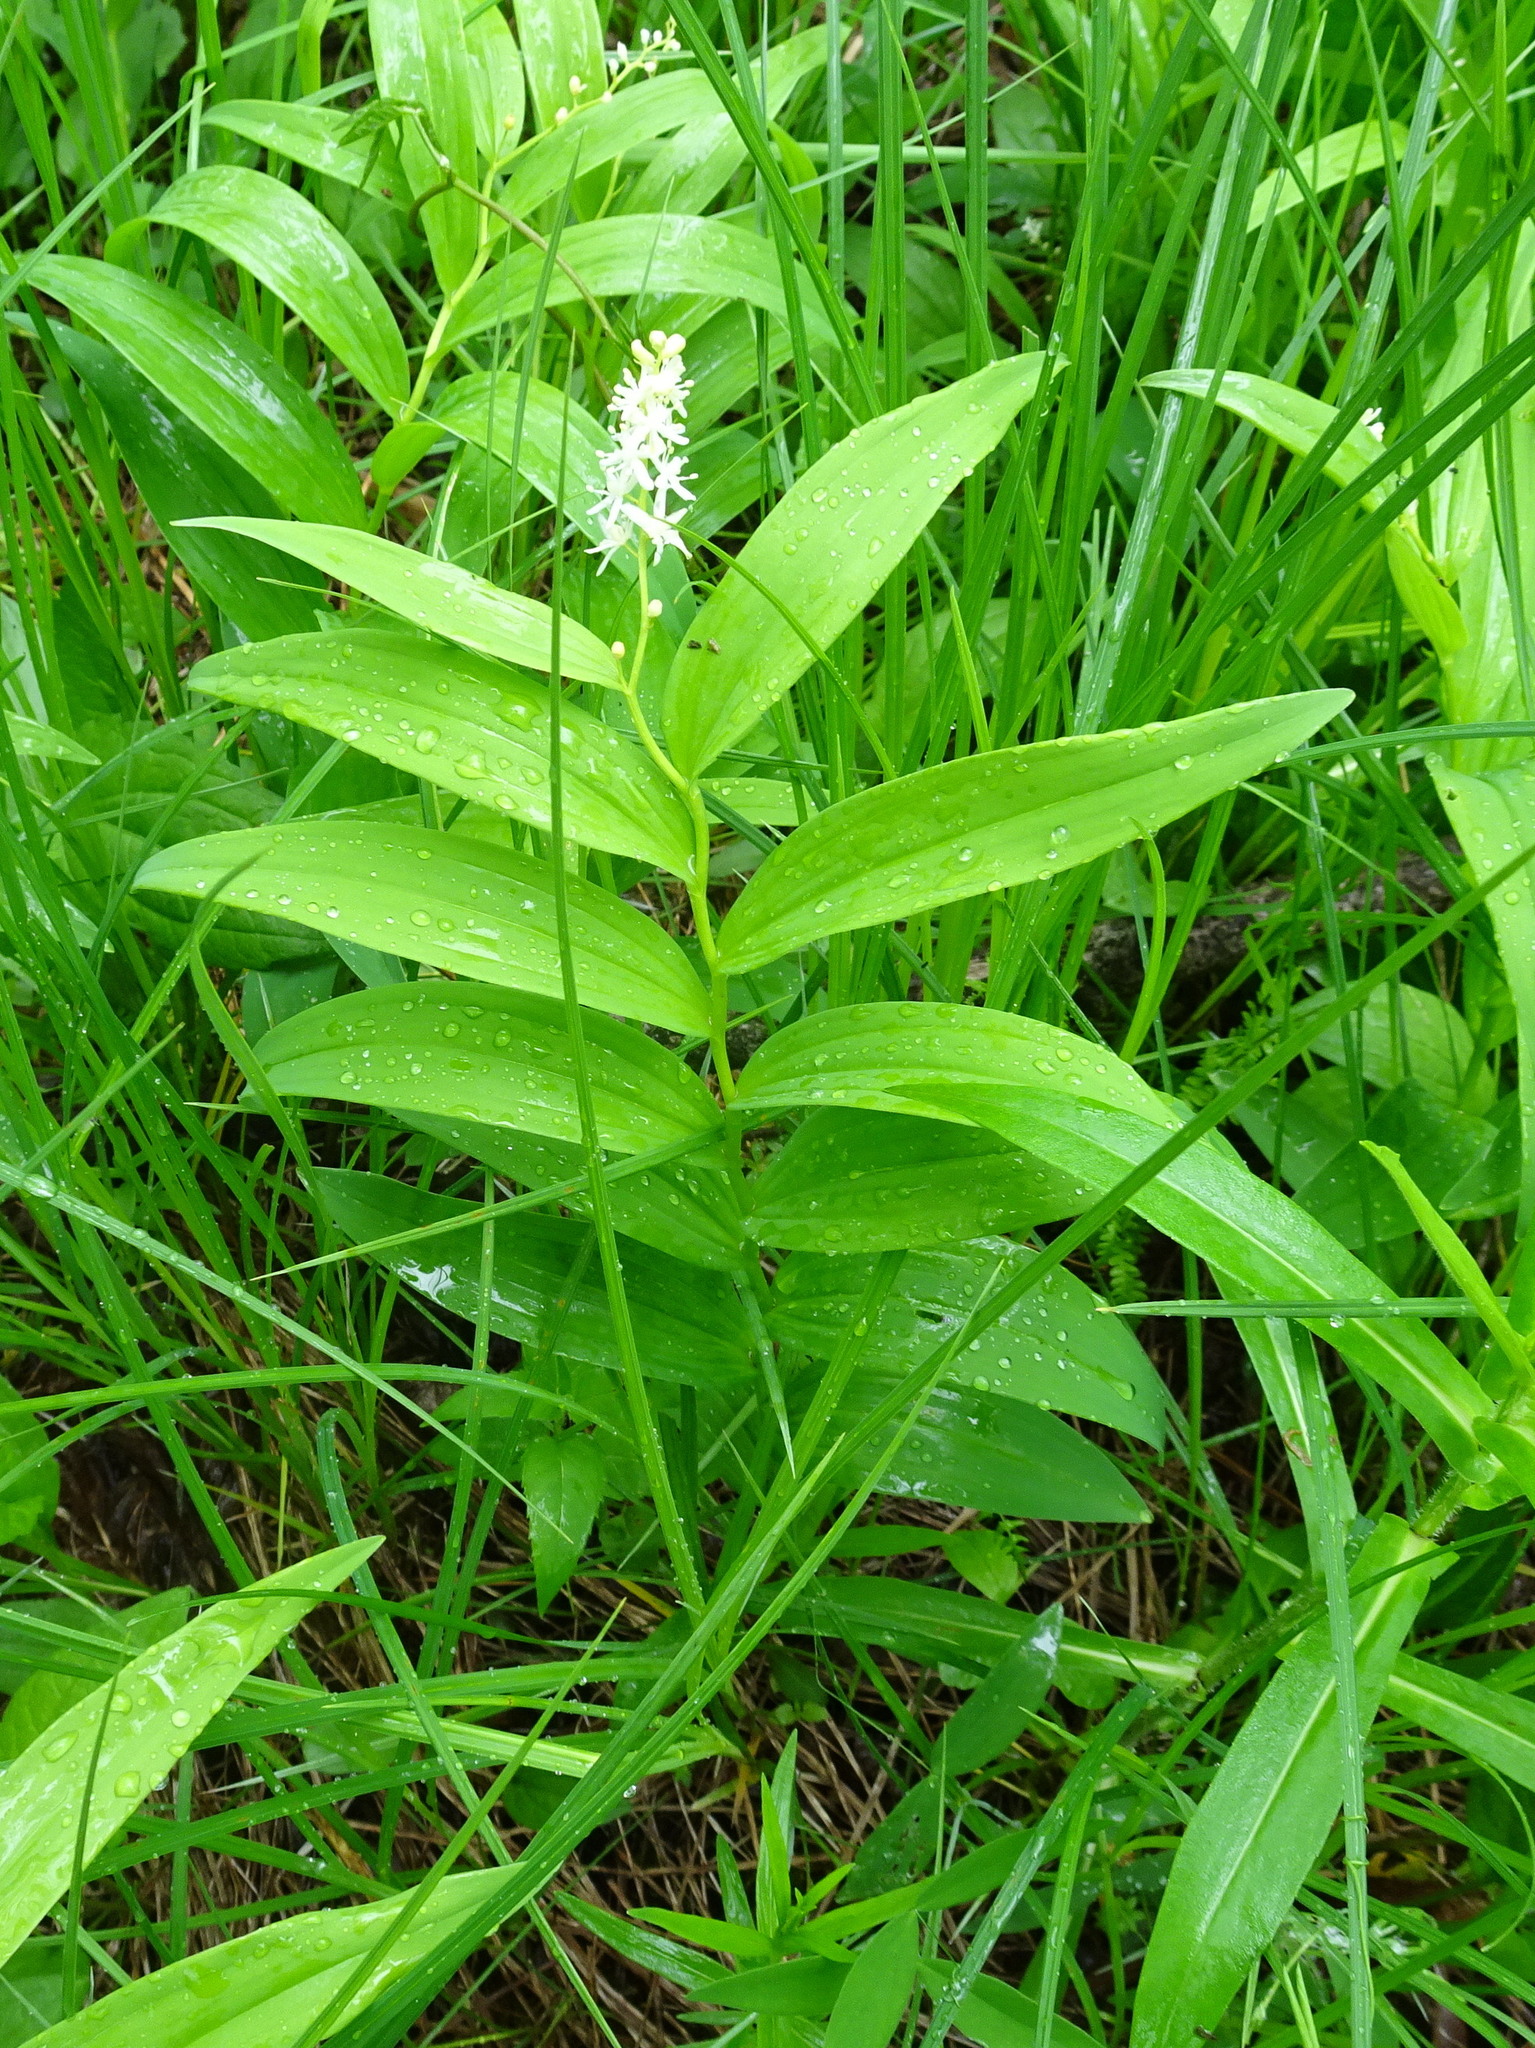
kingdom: Plantae
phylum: Tracheophyta
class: Liliopsida
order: Asparagales
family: Asparagaceae
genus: Maianthemum
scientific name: Maianthemum stellatum
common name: Little false solomon's seal
